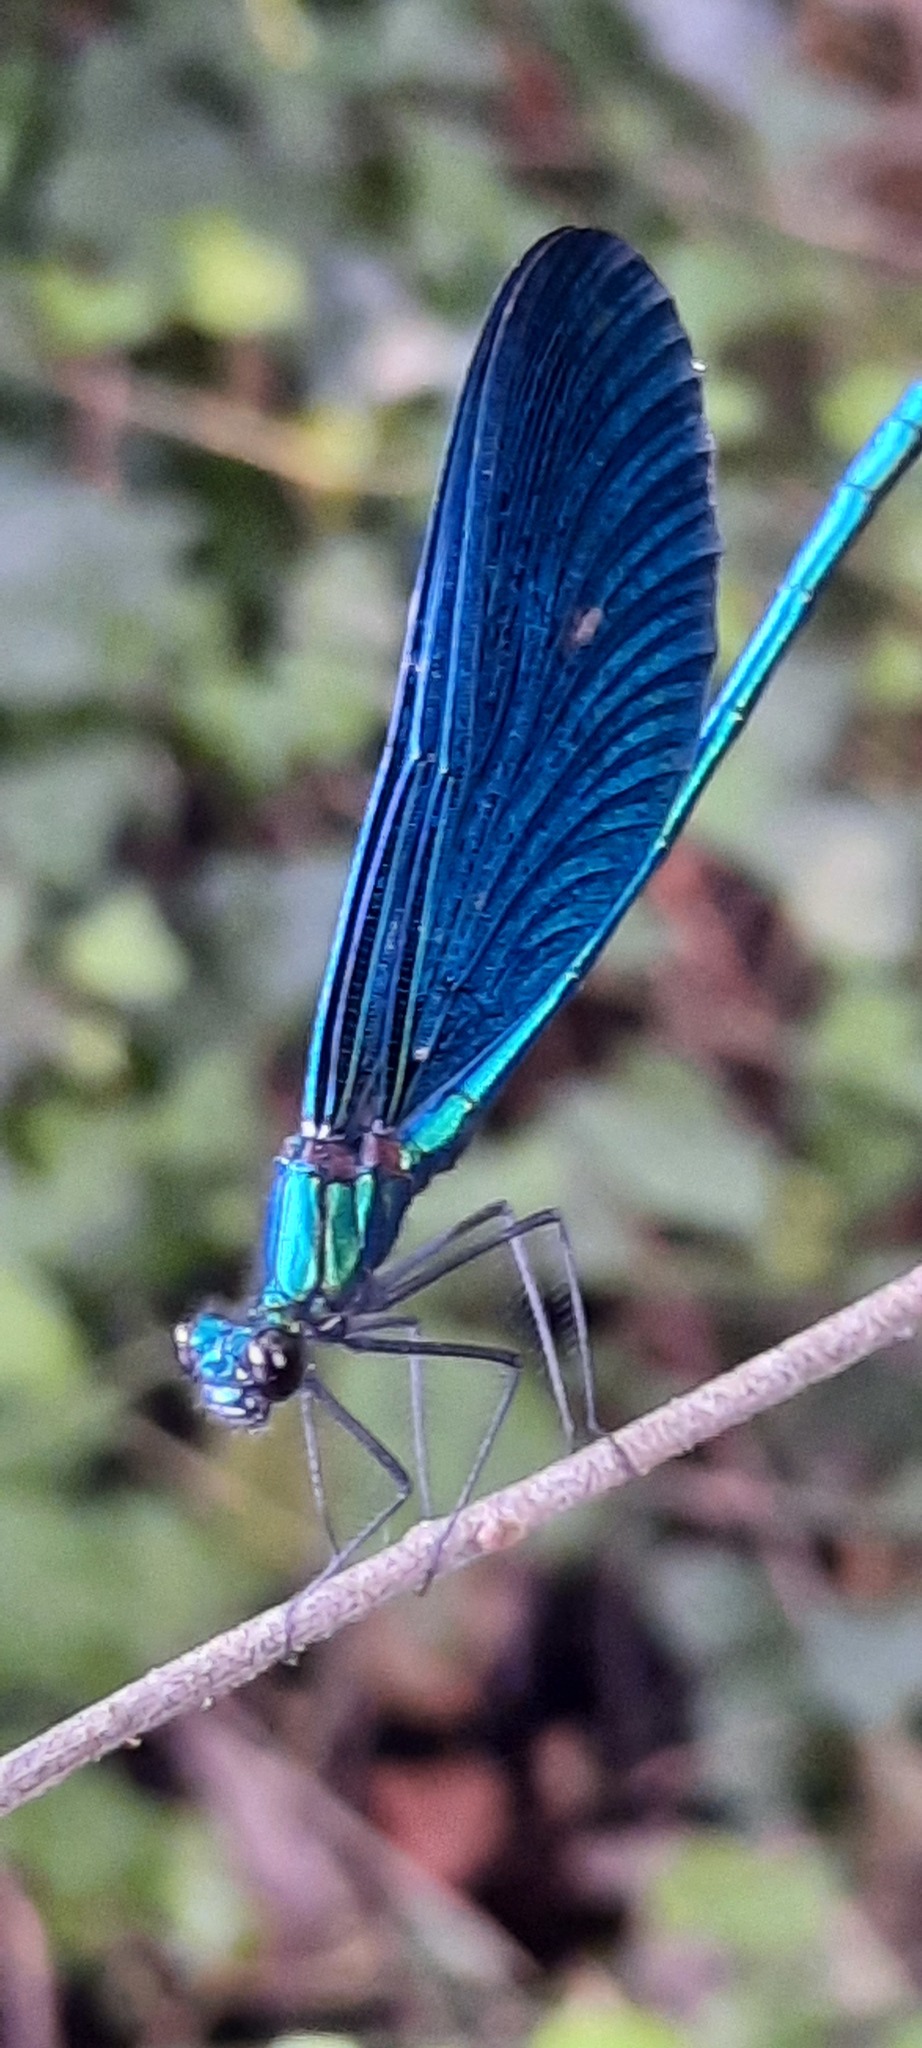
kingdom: Animalia
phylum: Arthropoda
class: Insecta
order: Odonata
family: Calopterygidae
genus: Calopteryx
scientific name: Calopteryx virgo
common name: Beautiful demoiselle
